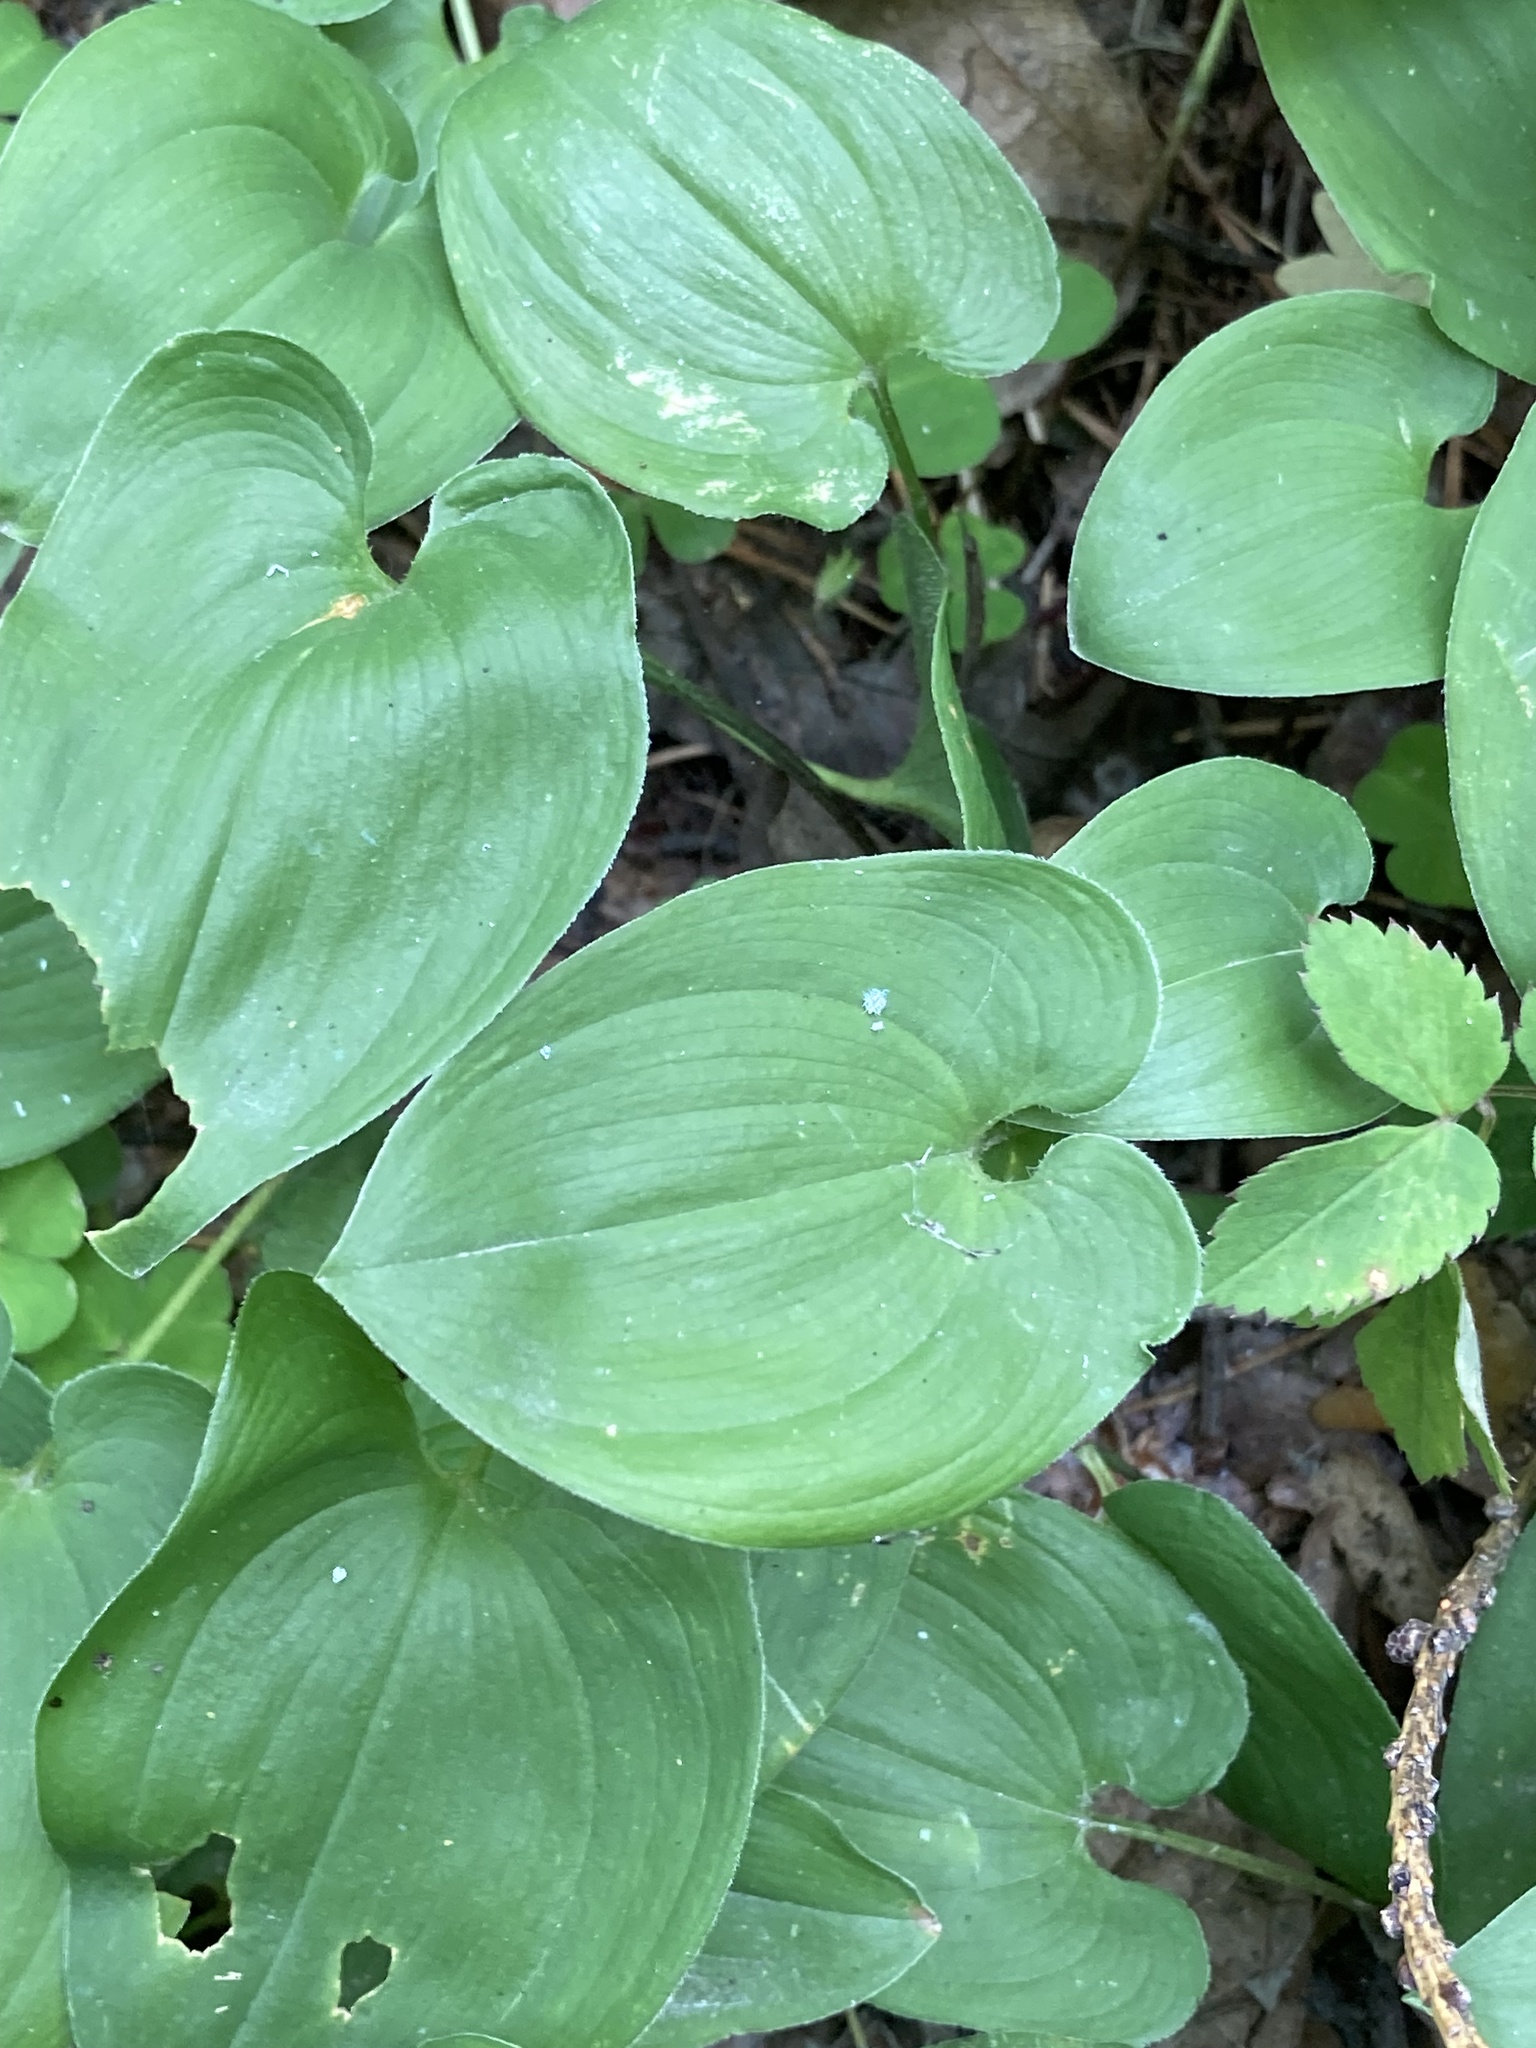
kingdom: Plantae
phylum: Tracheophyta
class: Liliopsida
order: Asparagales
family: Asparagaceae
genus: Maianthemum
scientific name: Maianthemum bifolium
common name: May lily
